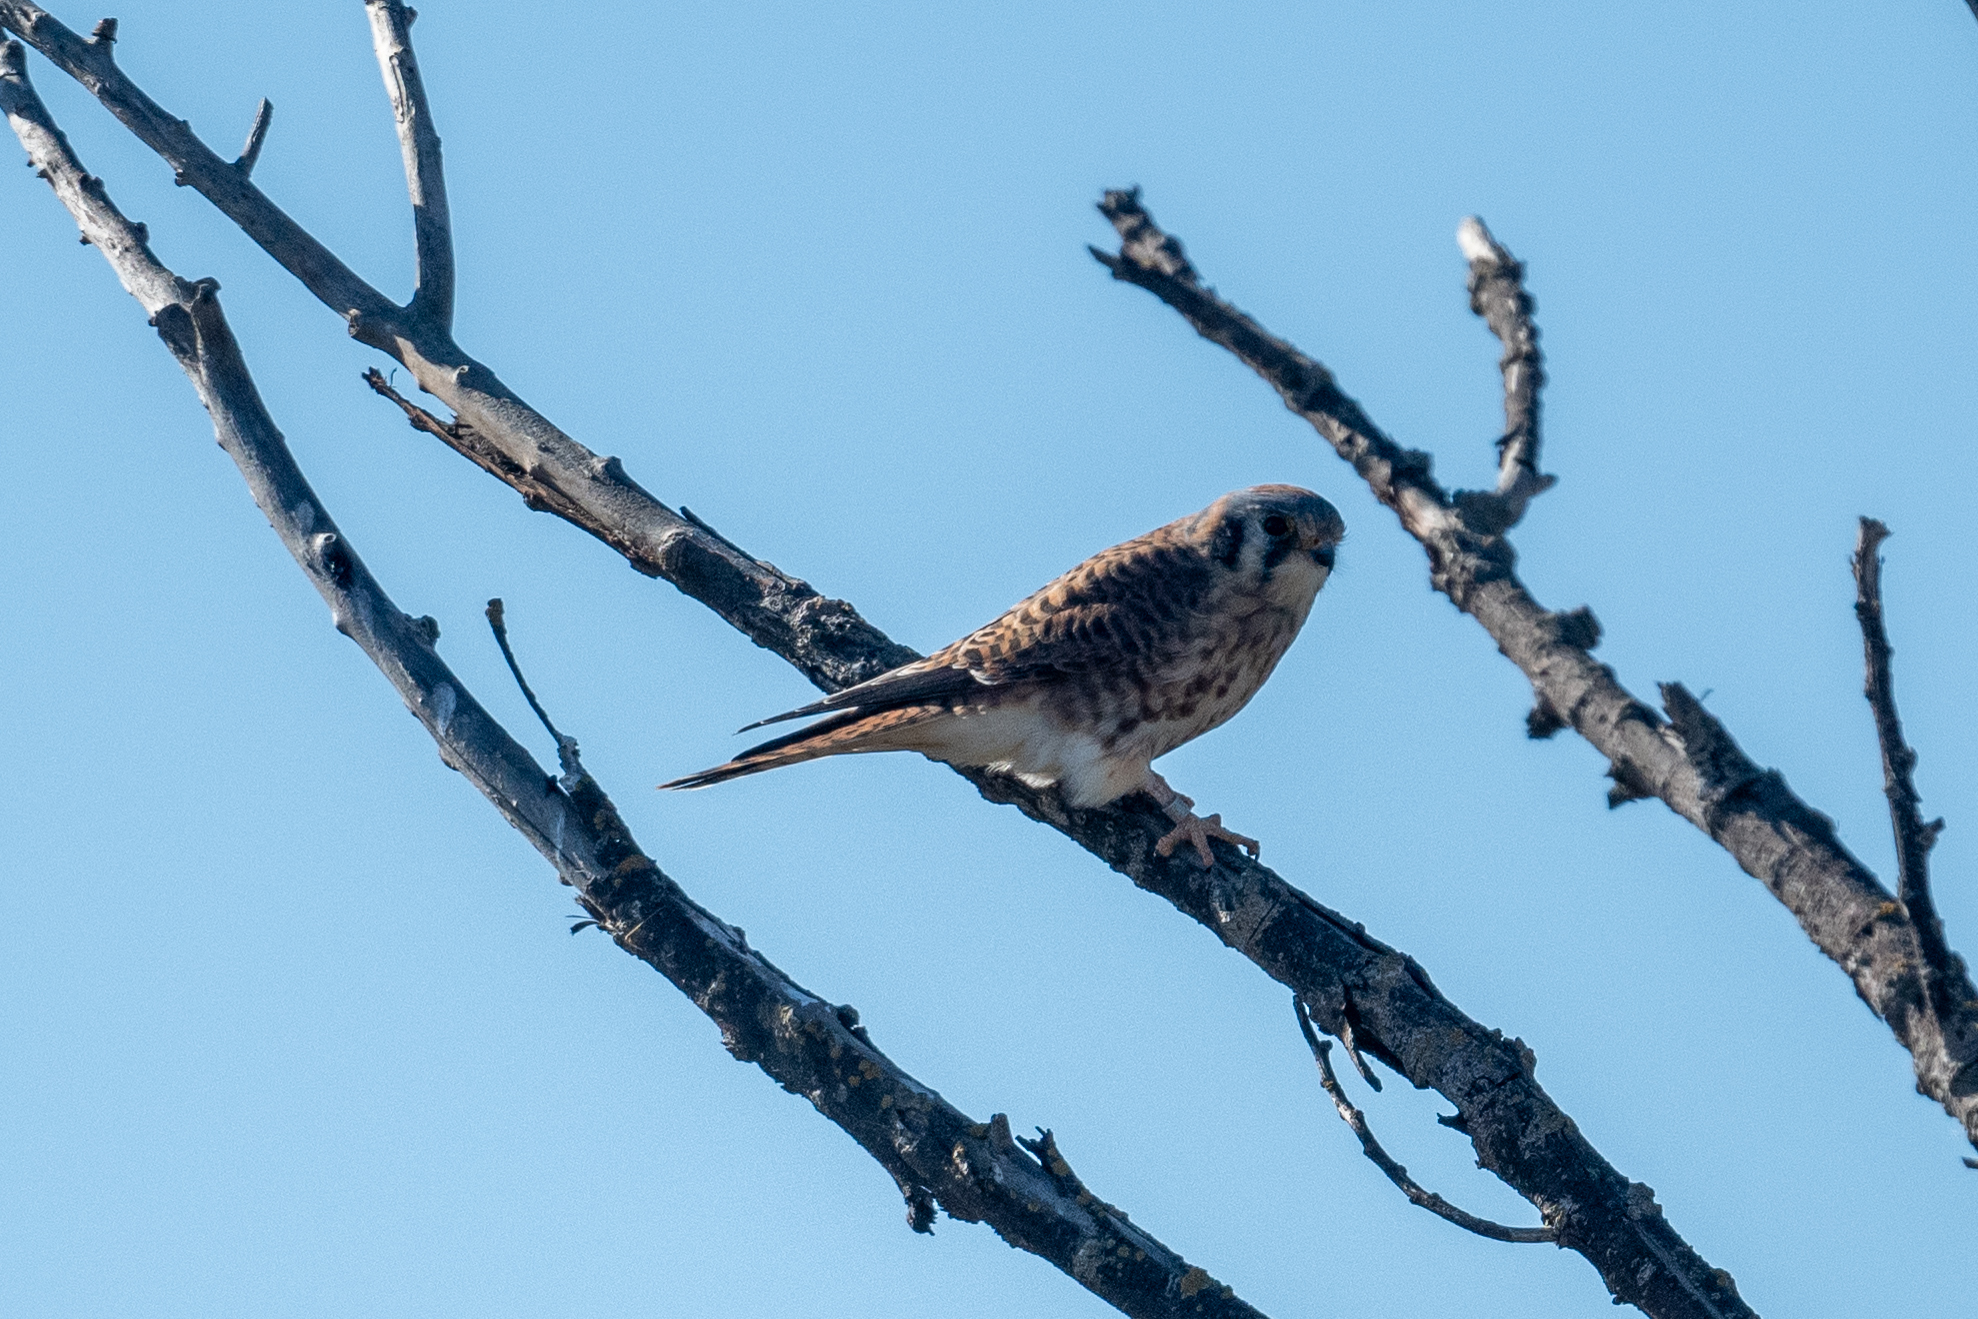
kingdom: Animalia
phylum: Chordata
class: Aves
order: Falconiformes
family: Falconidae
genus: Falco
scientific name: Falco sparverius
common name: American kestrel
